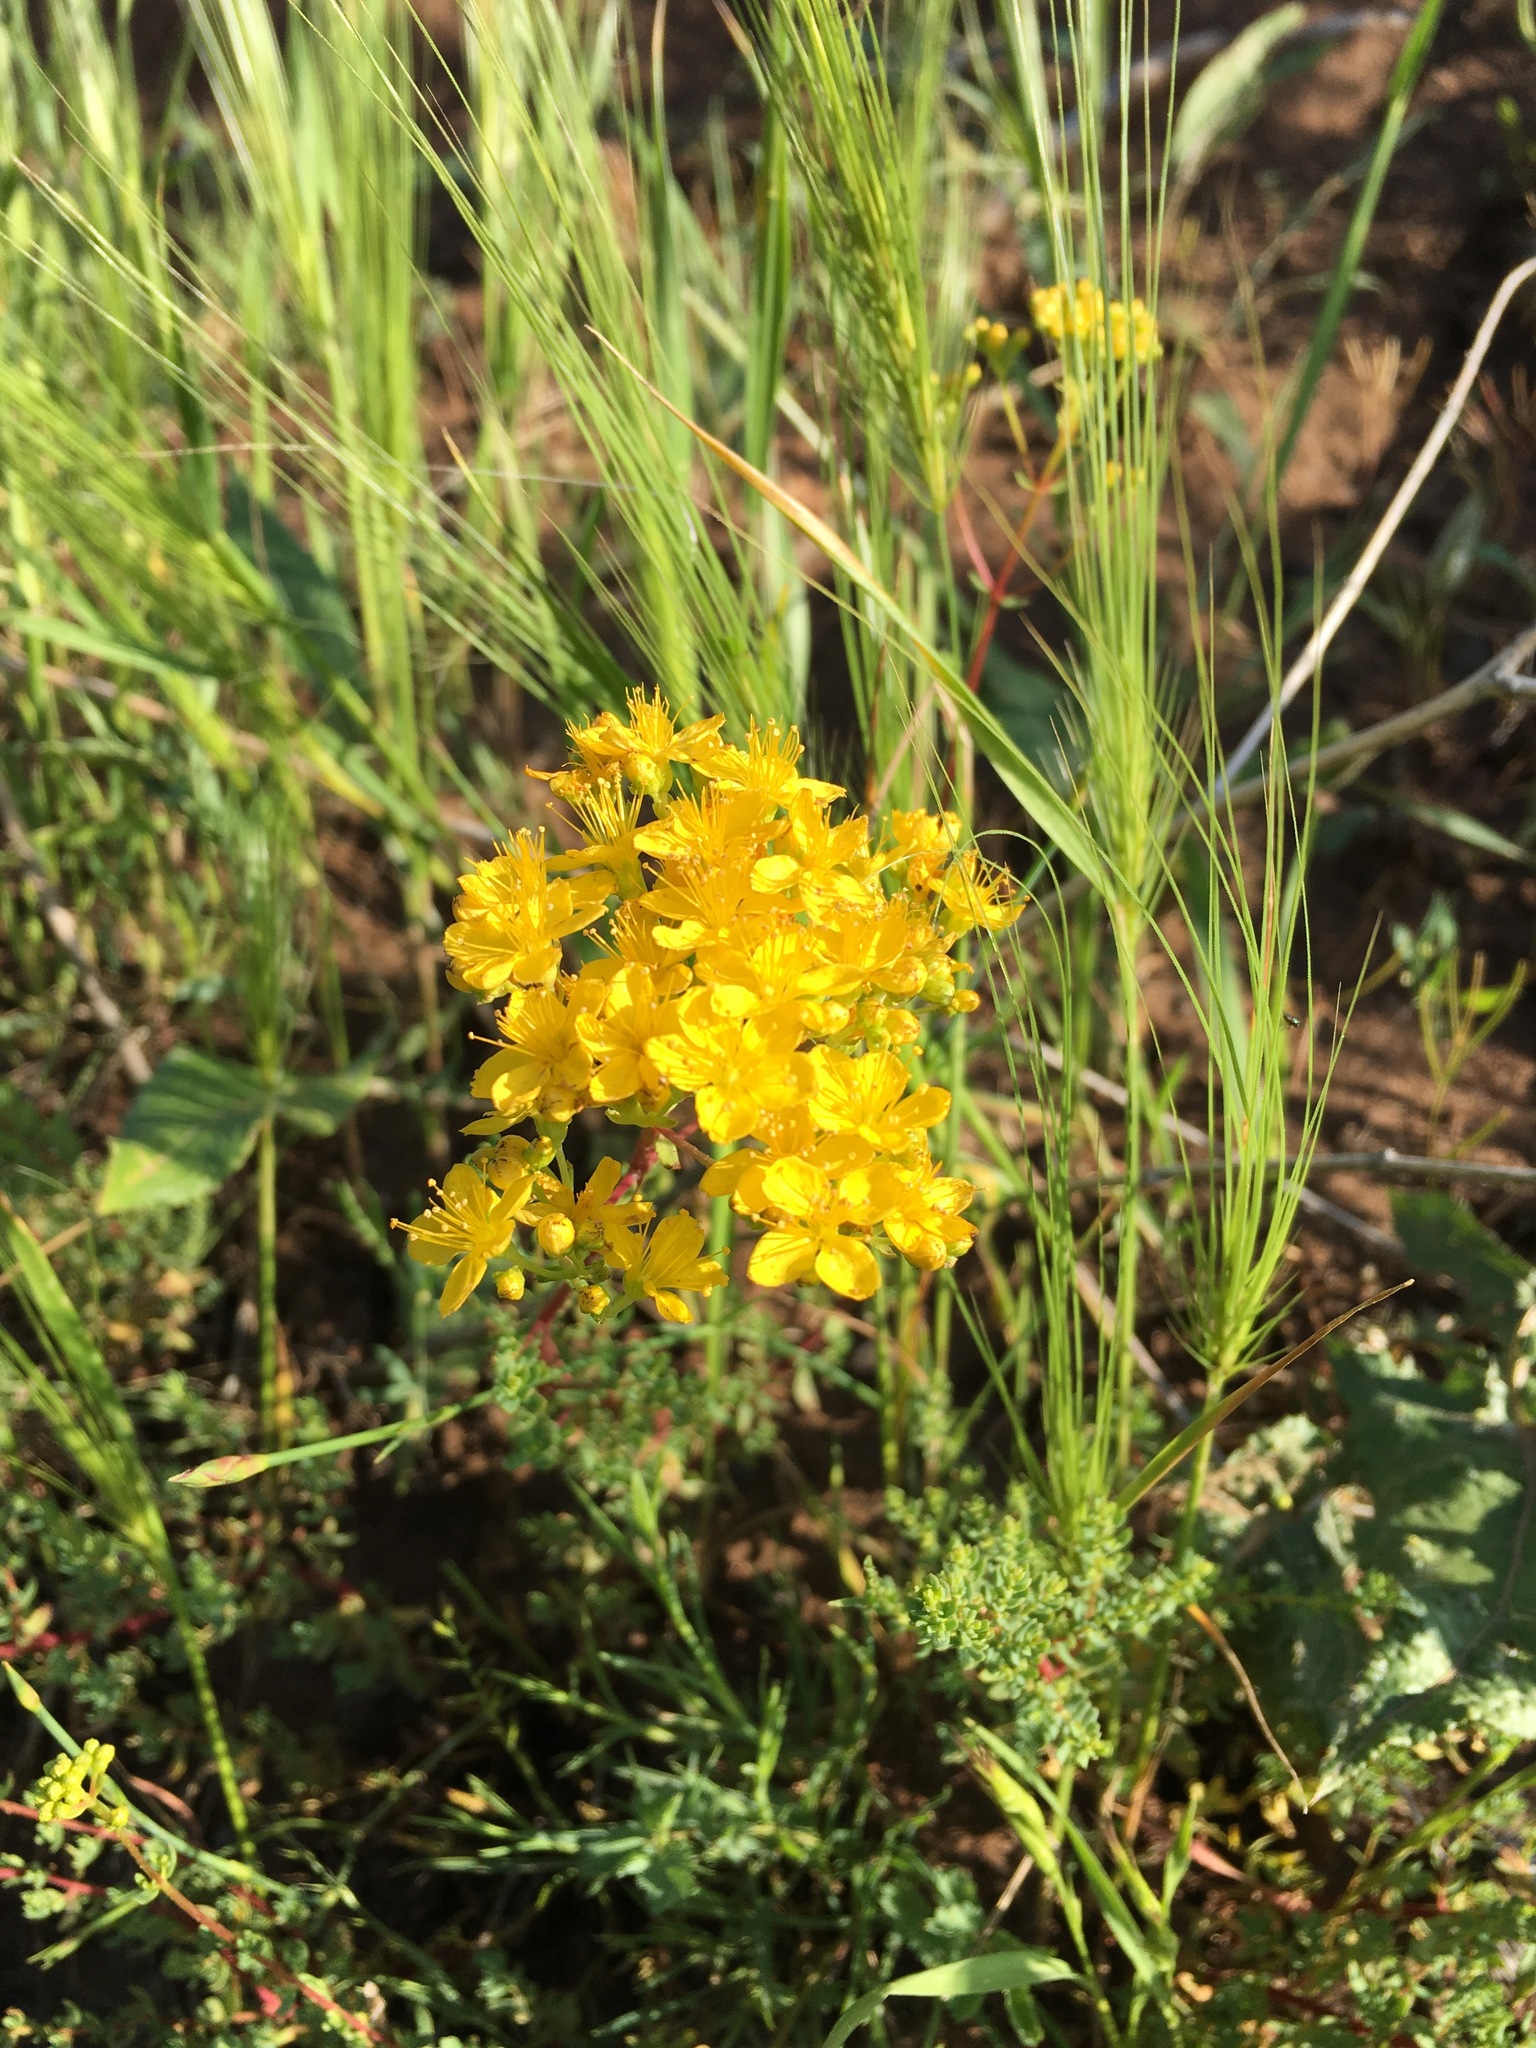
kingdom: Plantae
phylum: Tracheophyta
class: Magnoliopsida
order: Malpighiales
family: Hypericaceae
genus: Hypericum
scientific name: Hypericum scabrum
